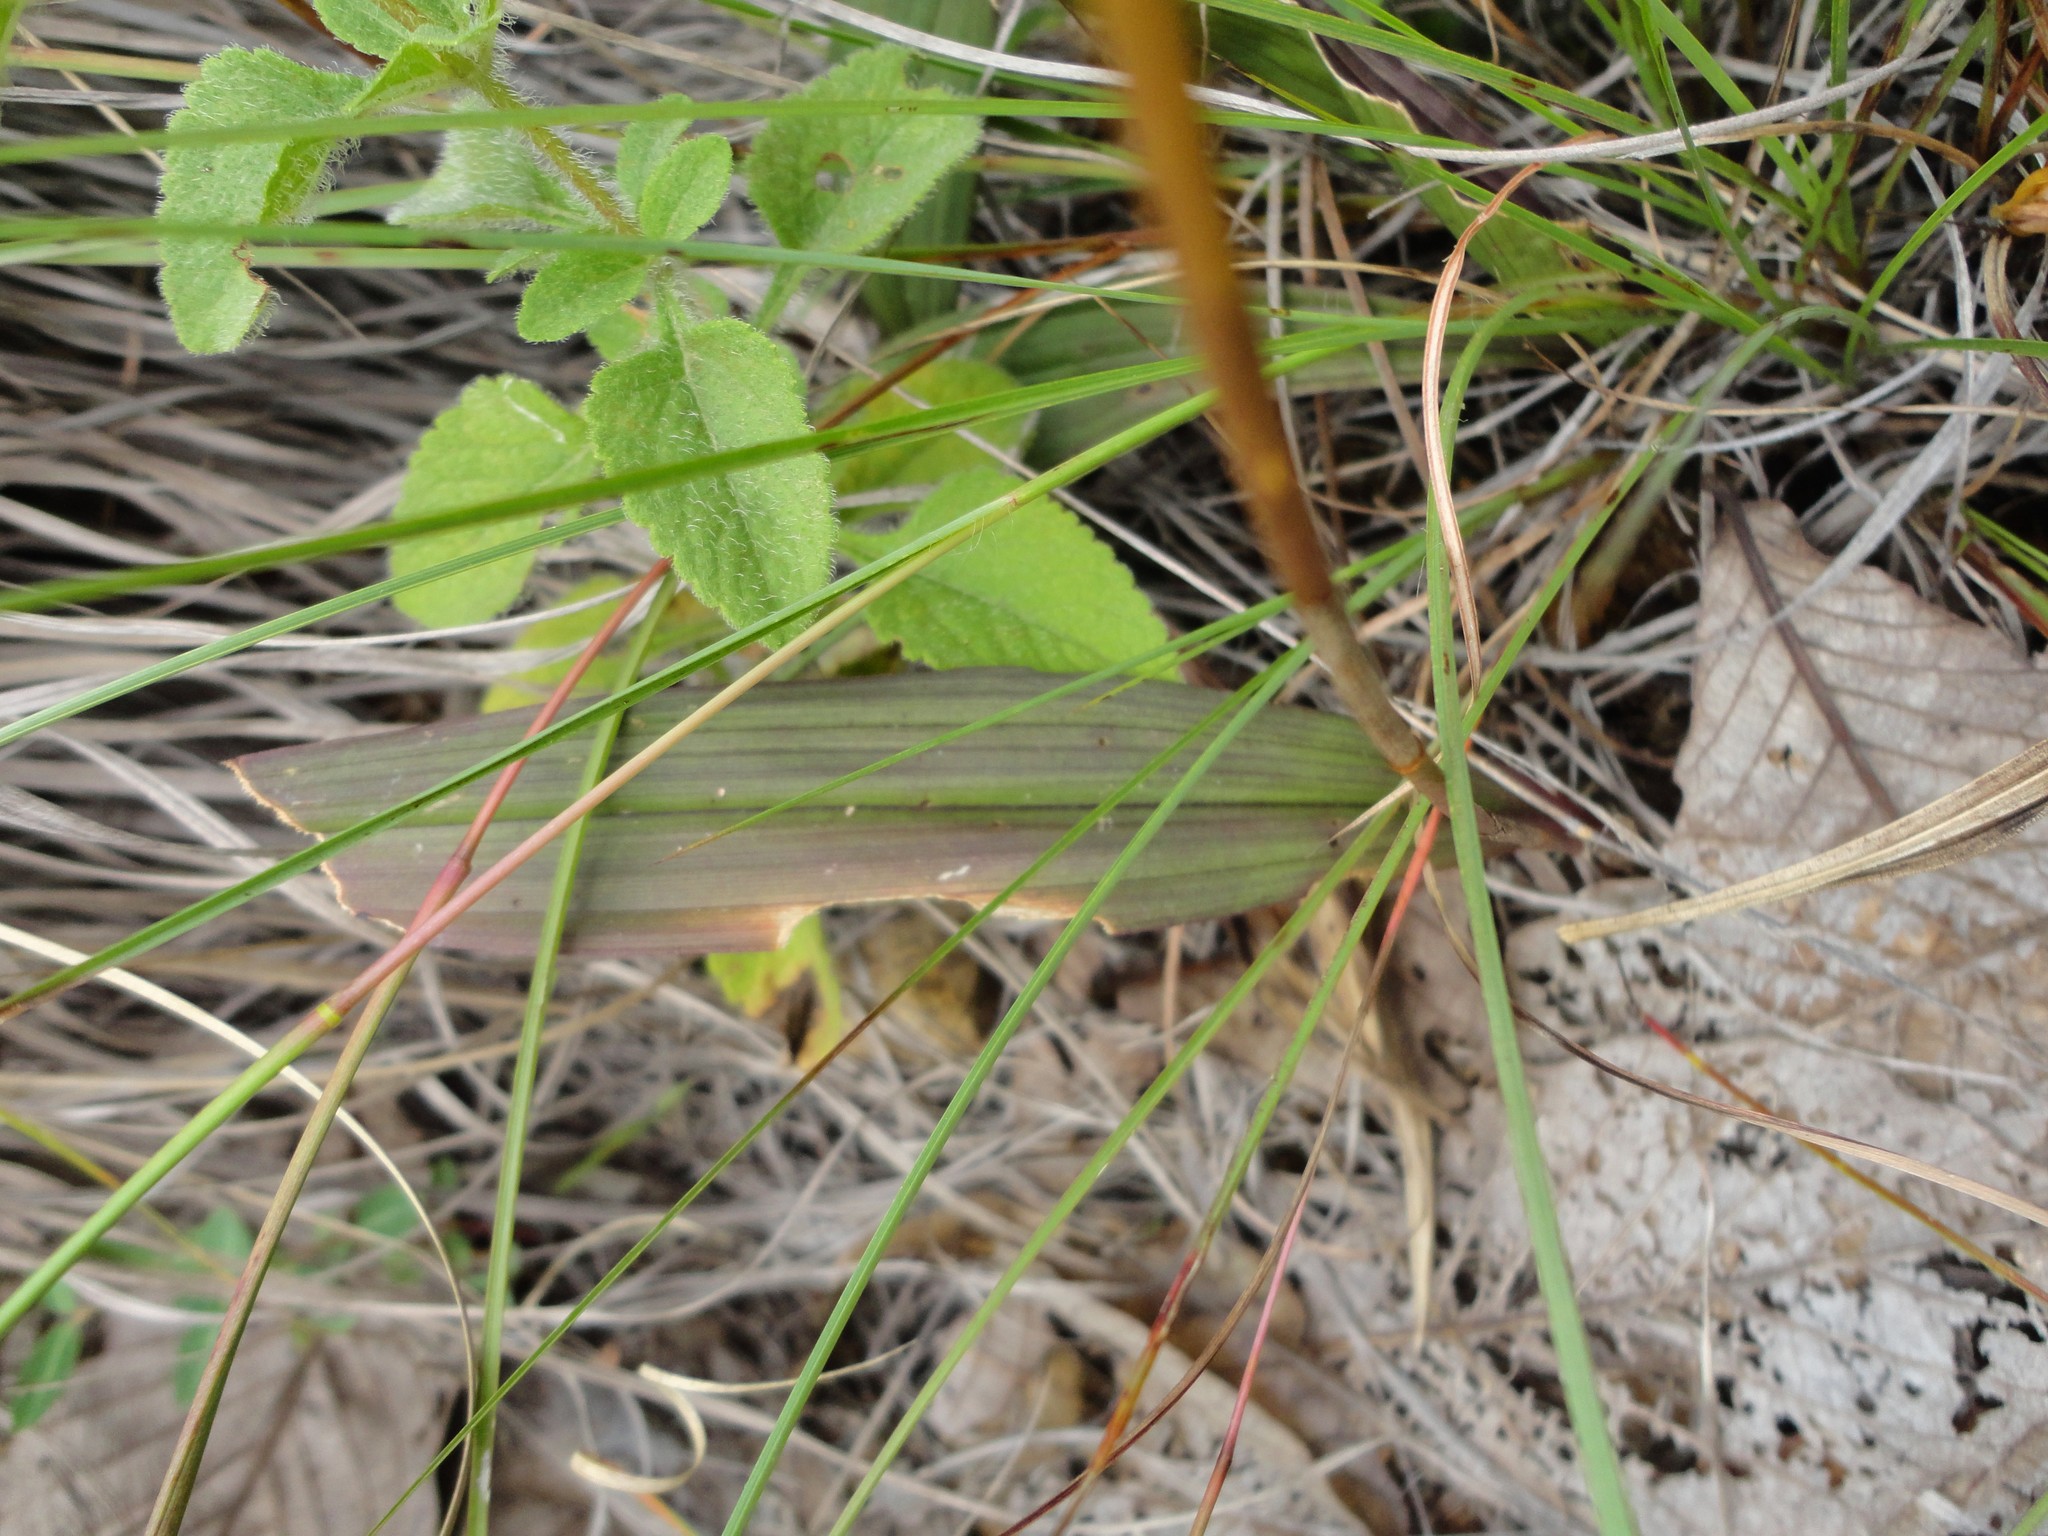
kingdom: Plantae
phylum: Tracheophyta
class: Liliopsida
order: Asparagales
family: Orchidaceae
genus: Bletia
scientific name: Bletia roezlii
